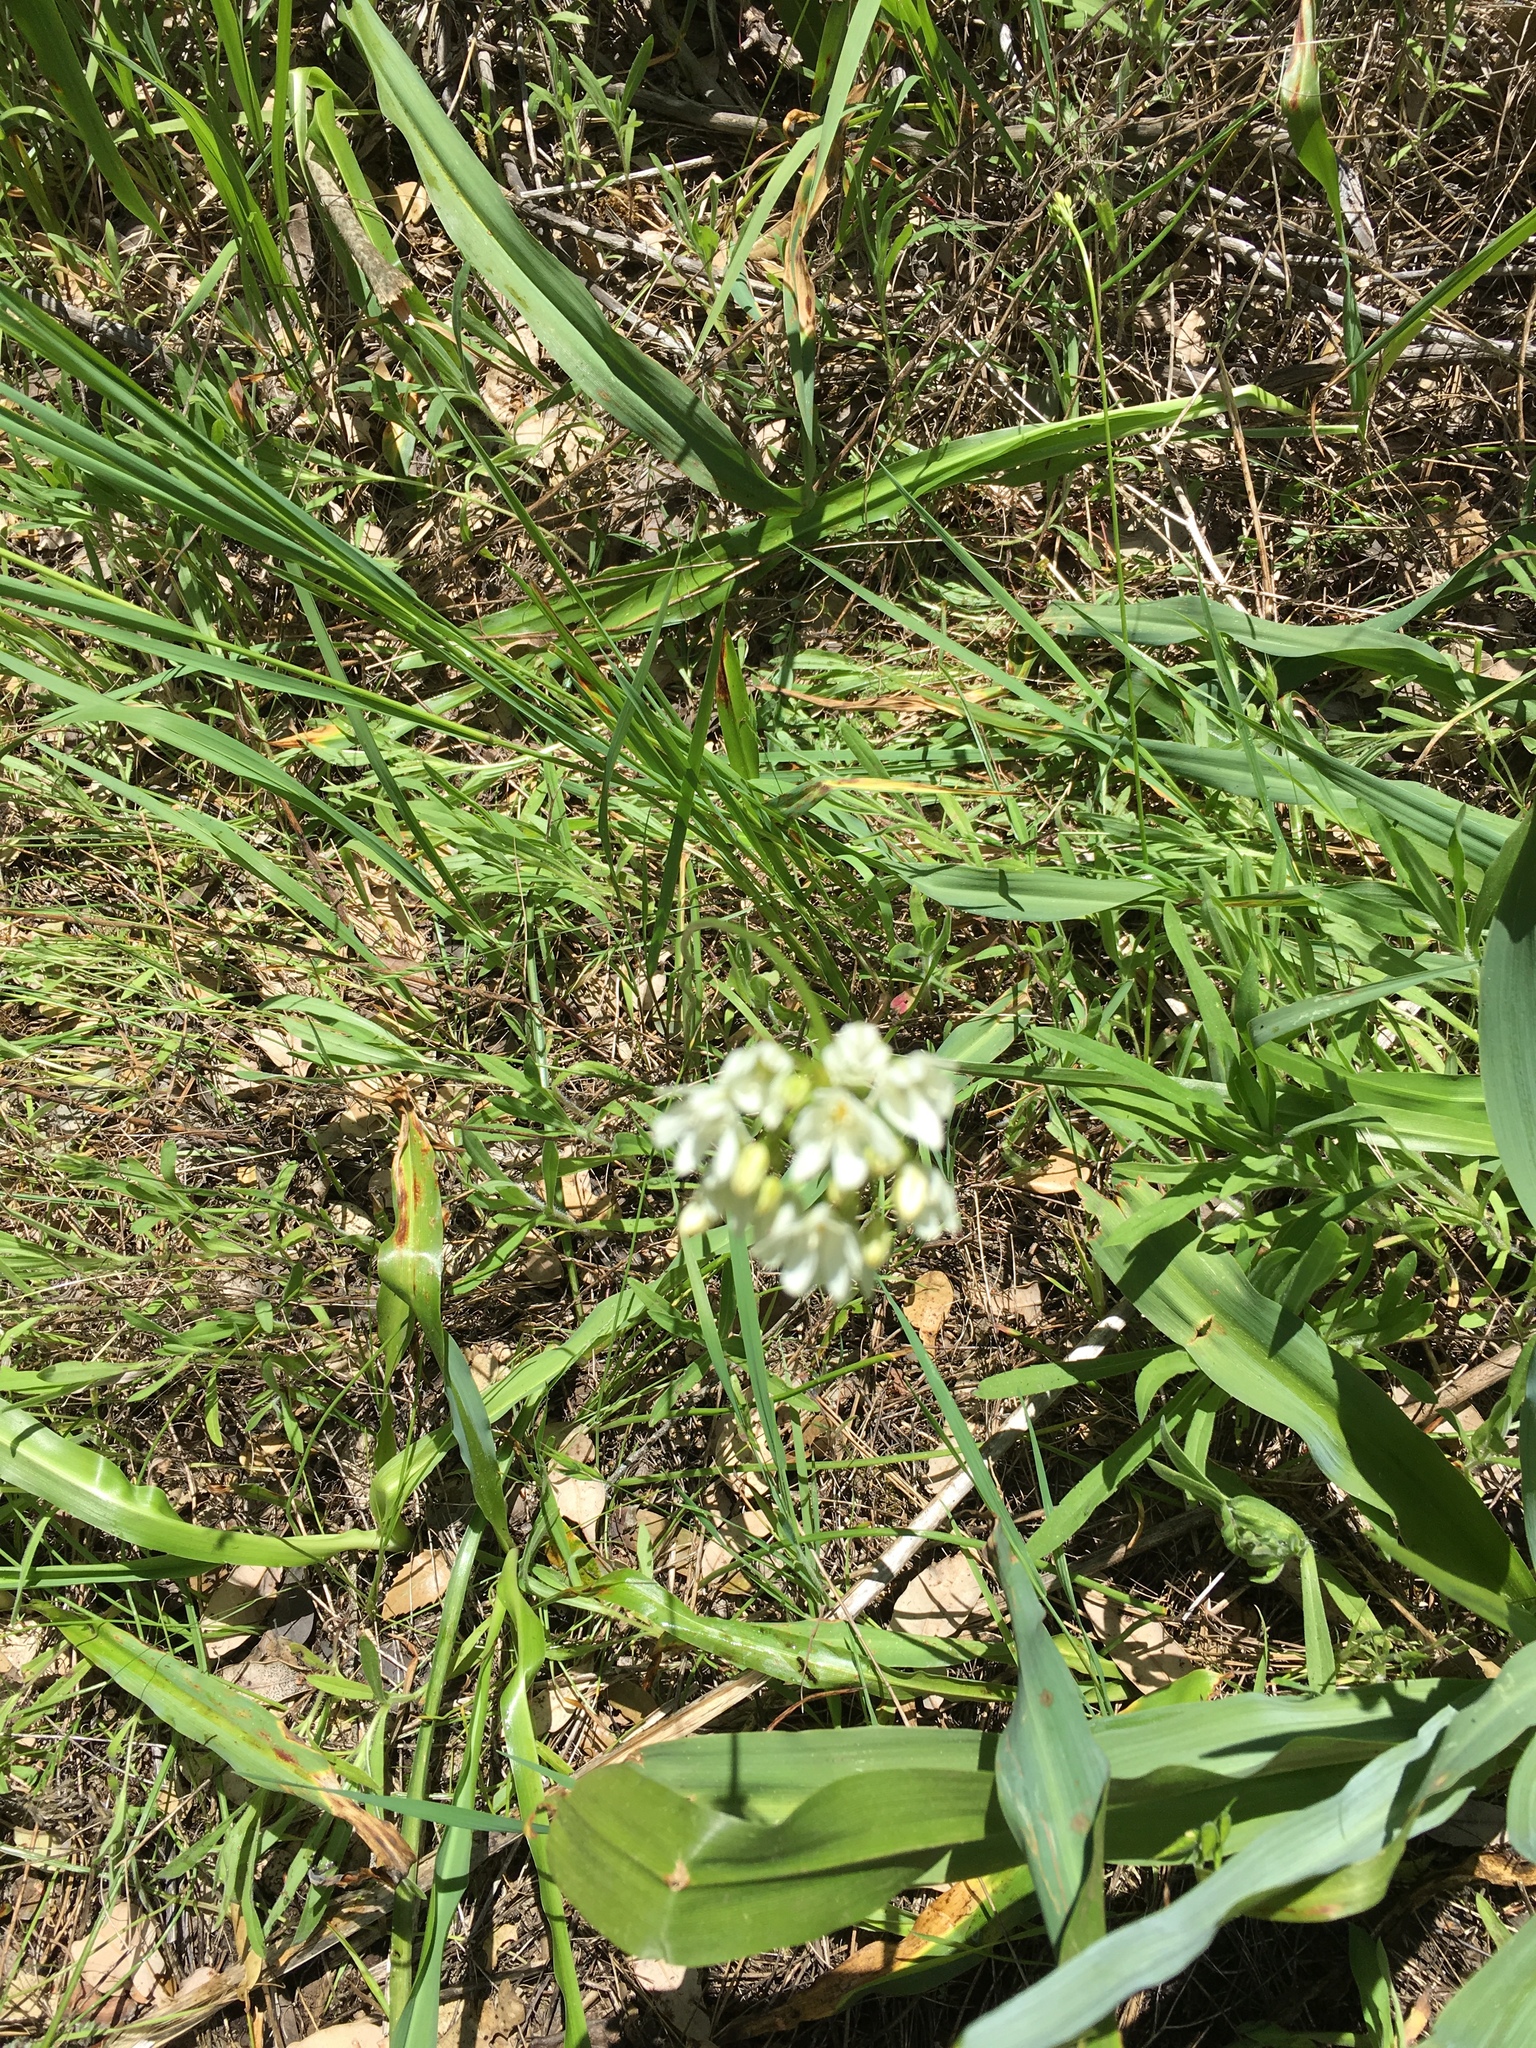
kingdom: Plantae
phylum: Tracheophyta
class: Liliopsida
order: Asparagales
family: Asparagaceae
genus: Triteleia
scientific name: Triteleia hyacinthina
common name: White brodiaea
